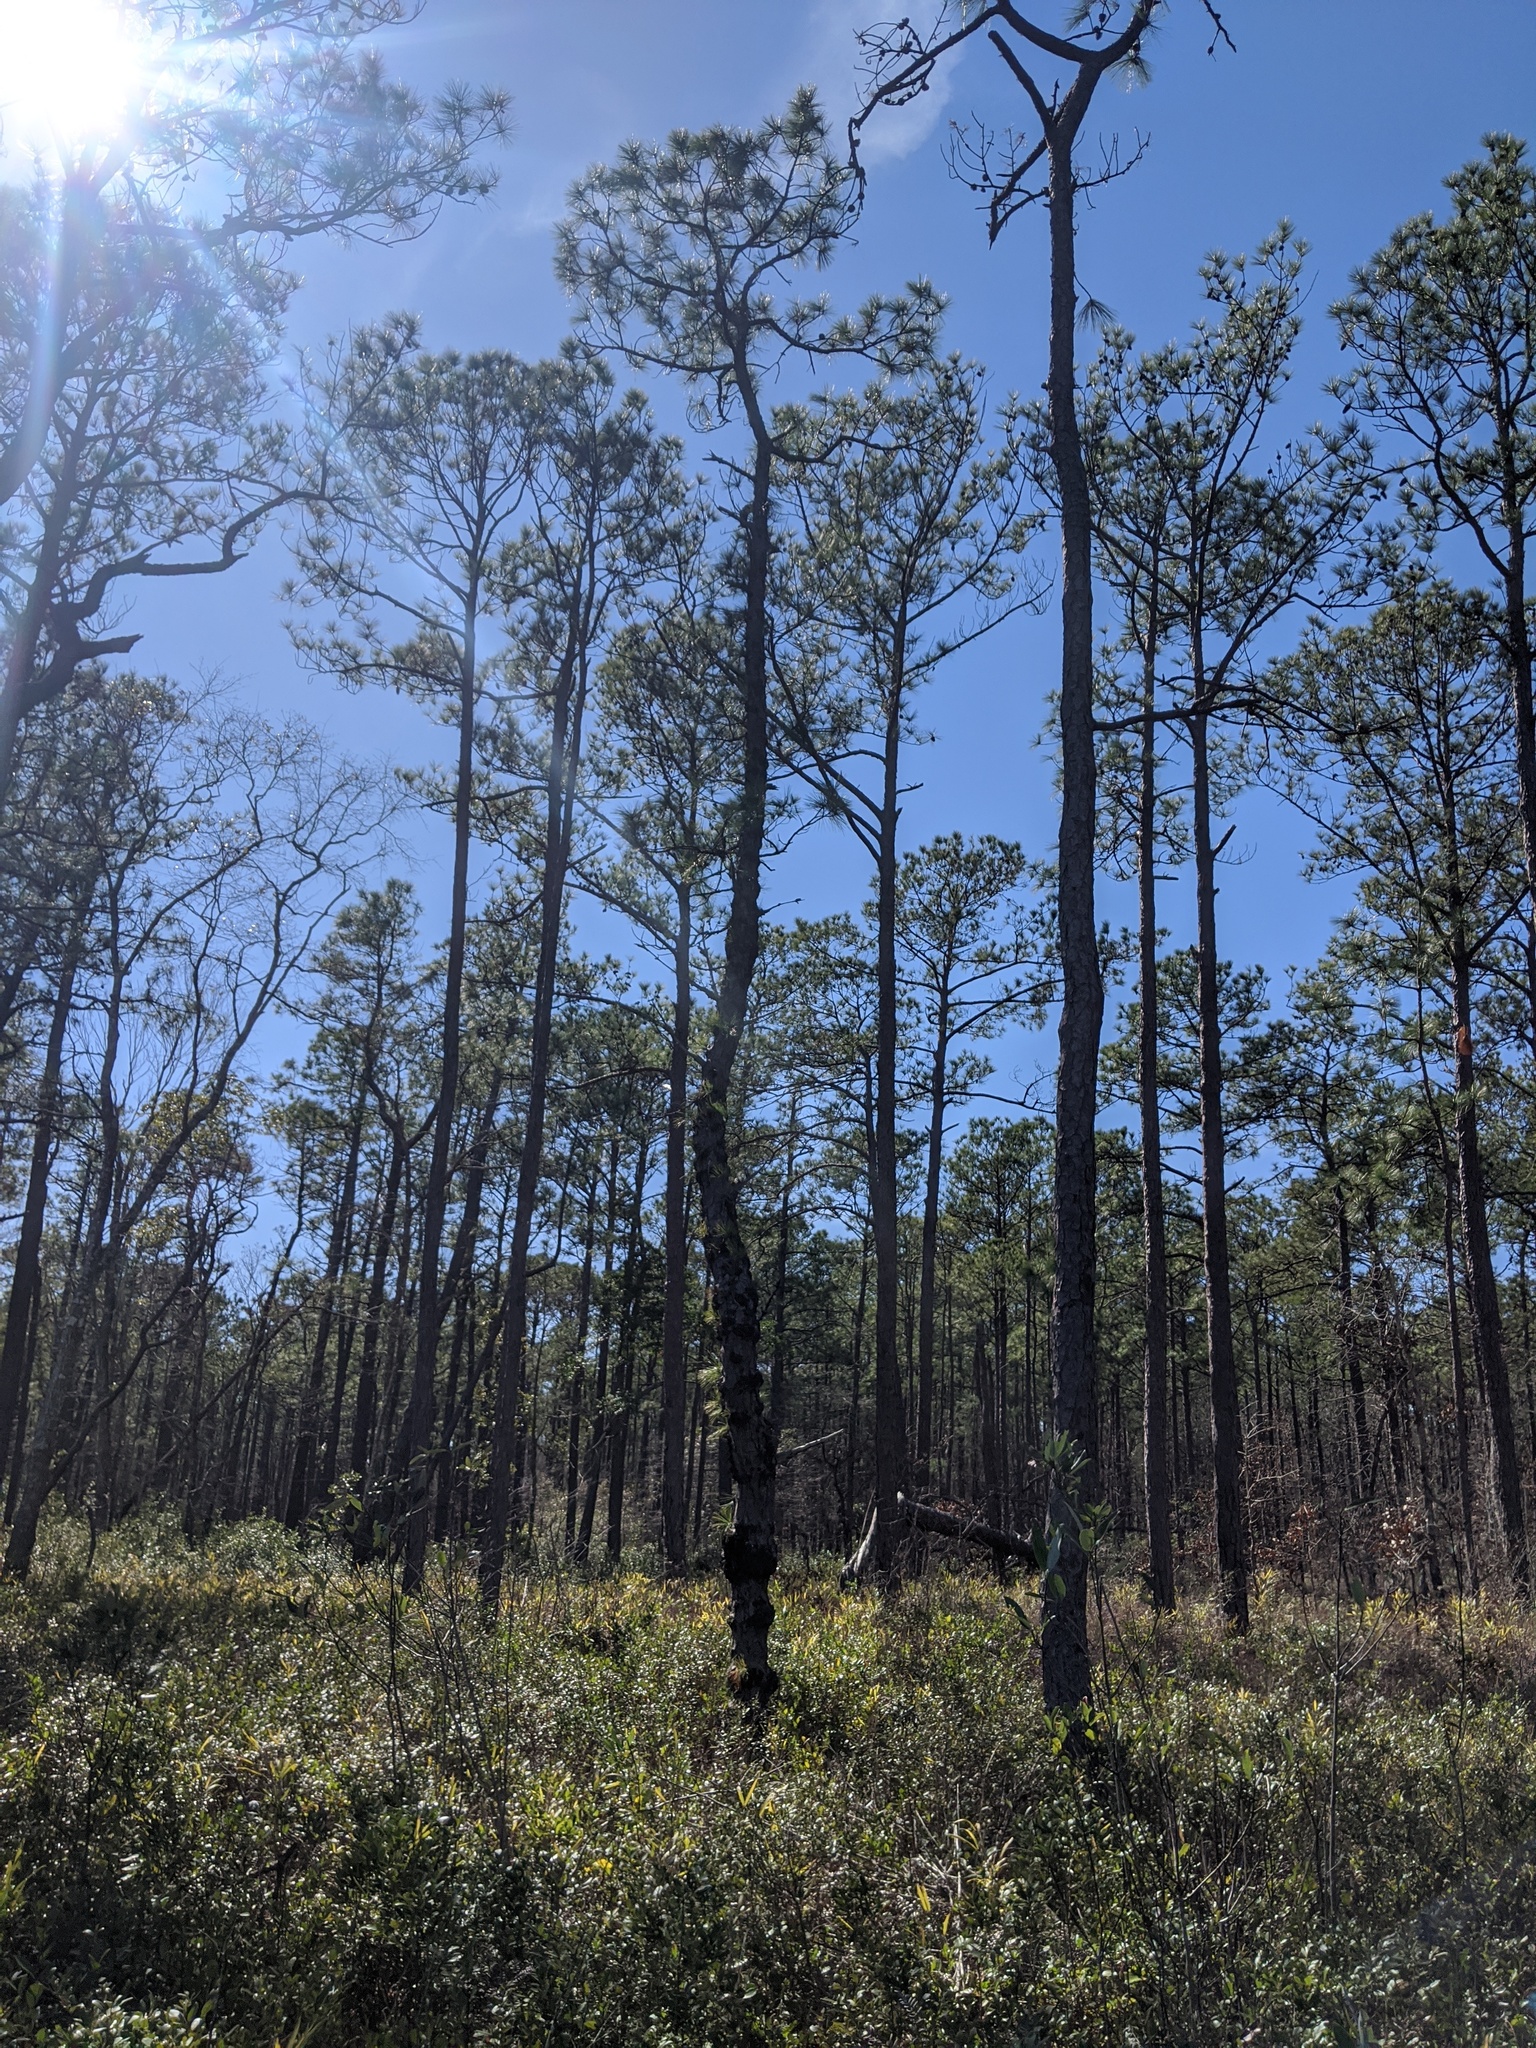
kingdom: Plantae
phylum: Tracheophyta
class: Pinopsida
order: Pinales
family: Pinaceae
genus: Pinus
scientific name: Pinus serotina
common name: Marsh pine
